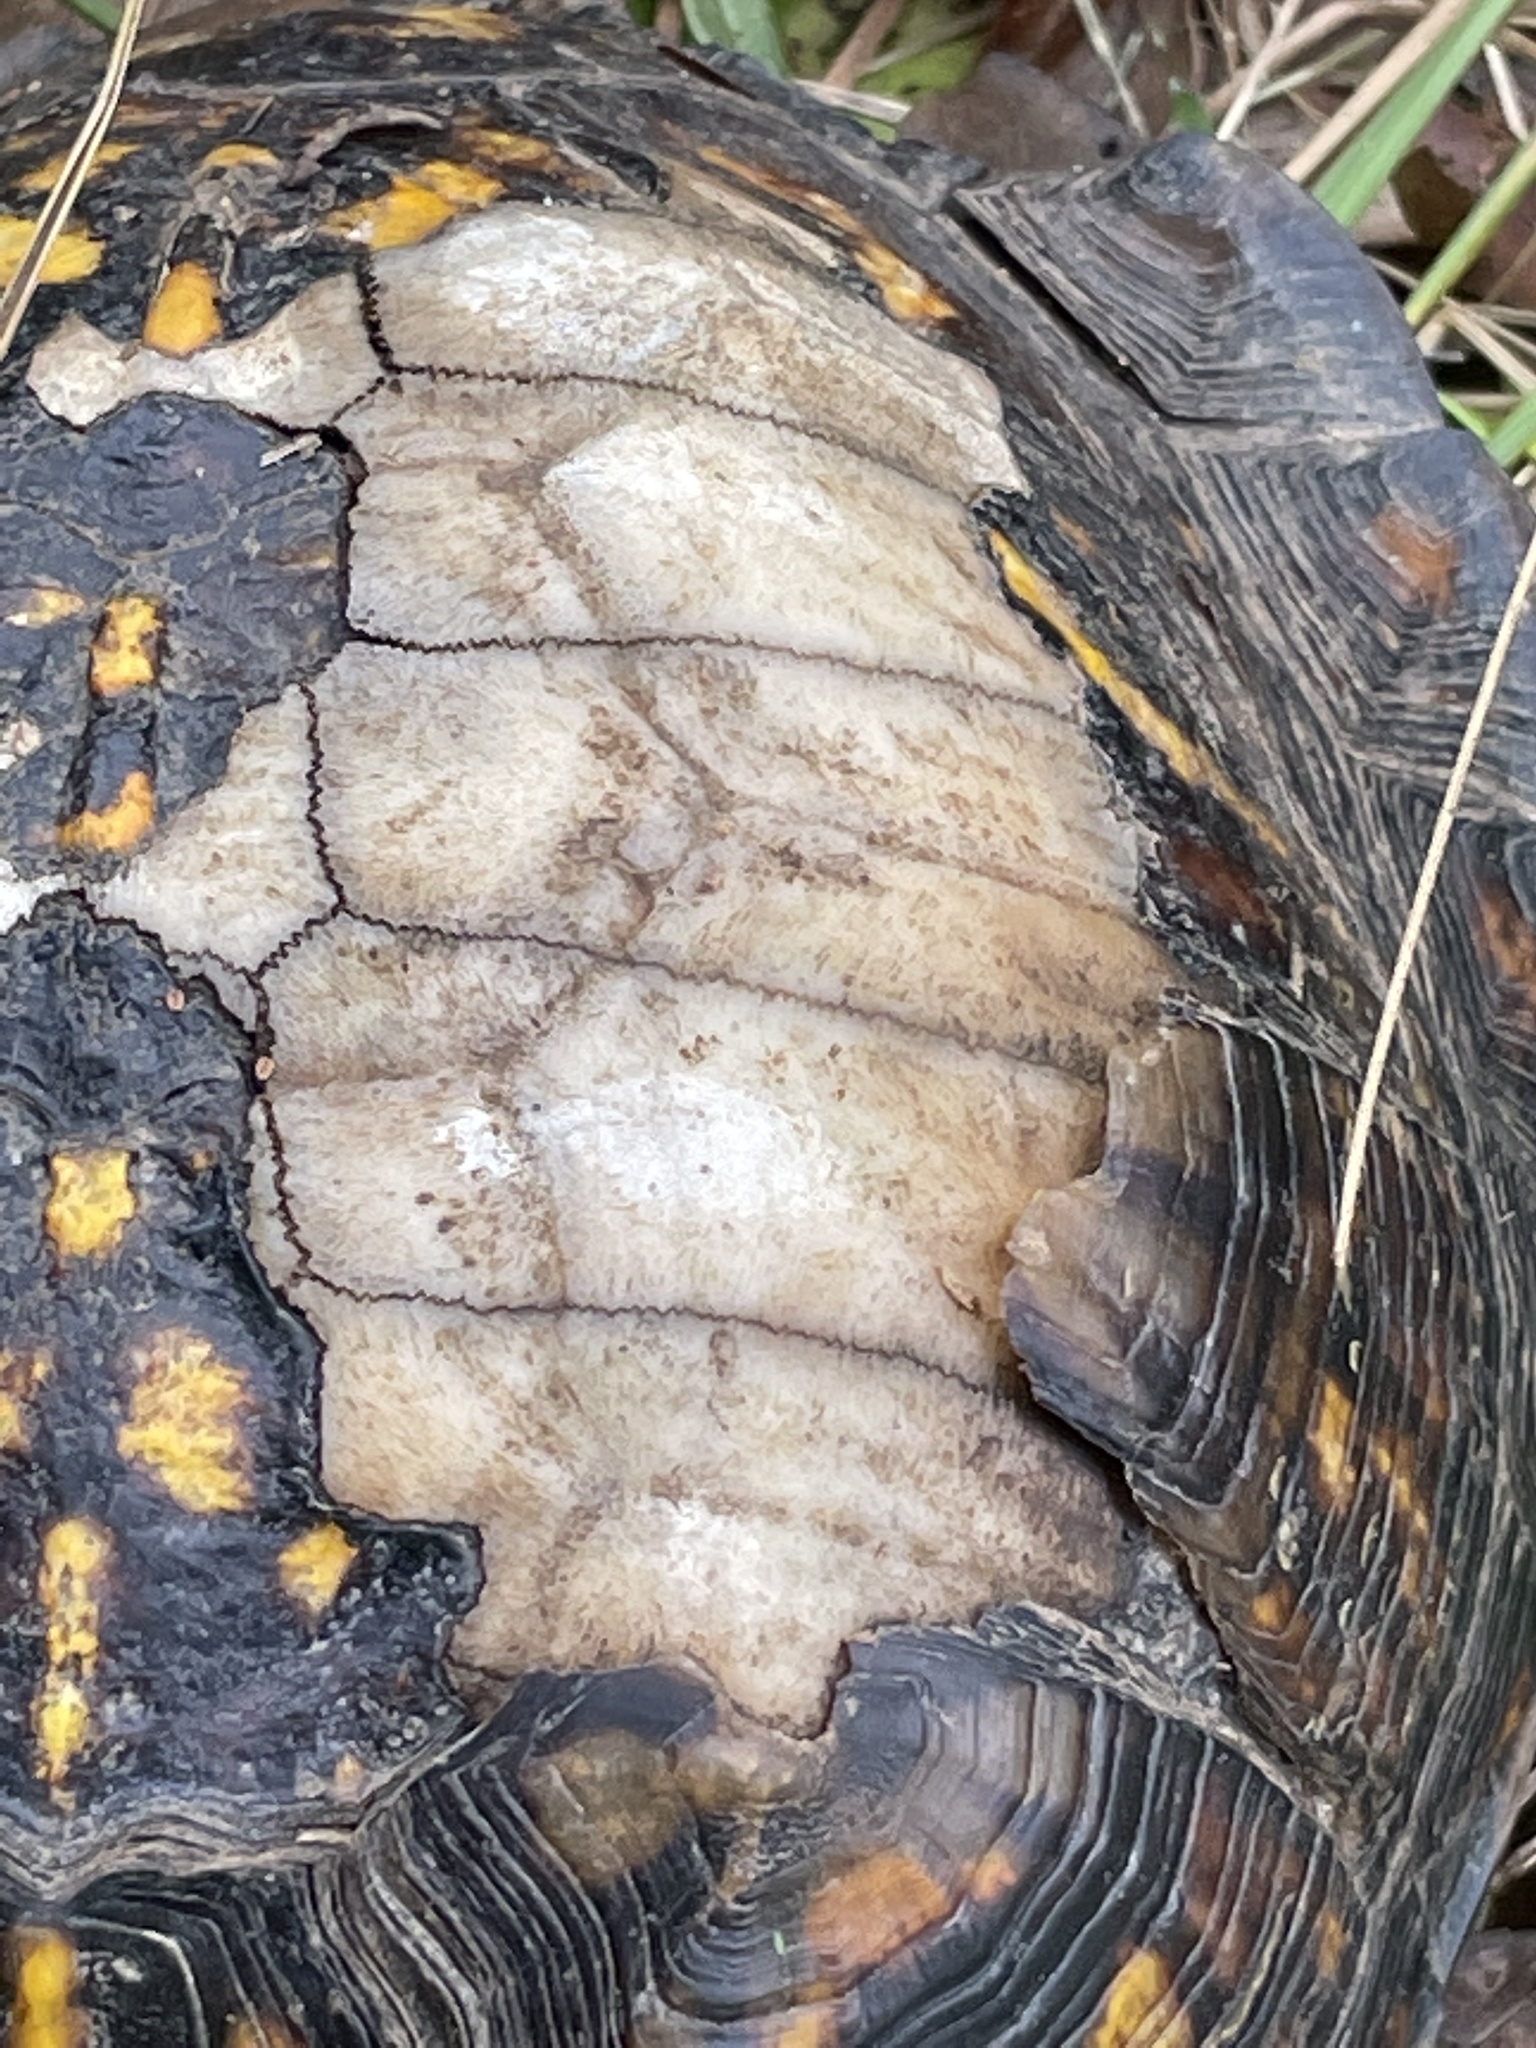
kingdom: Animalia
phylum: Chordata
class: Testudines
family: Emydidae
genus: Terrapene
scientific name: Terrapene carolina
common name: Common box turtle
